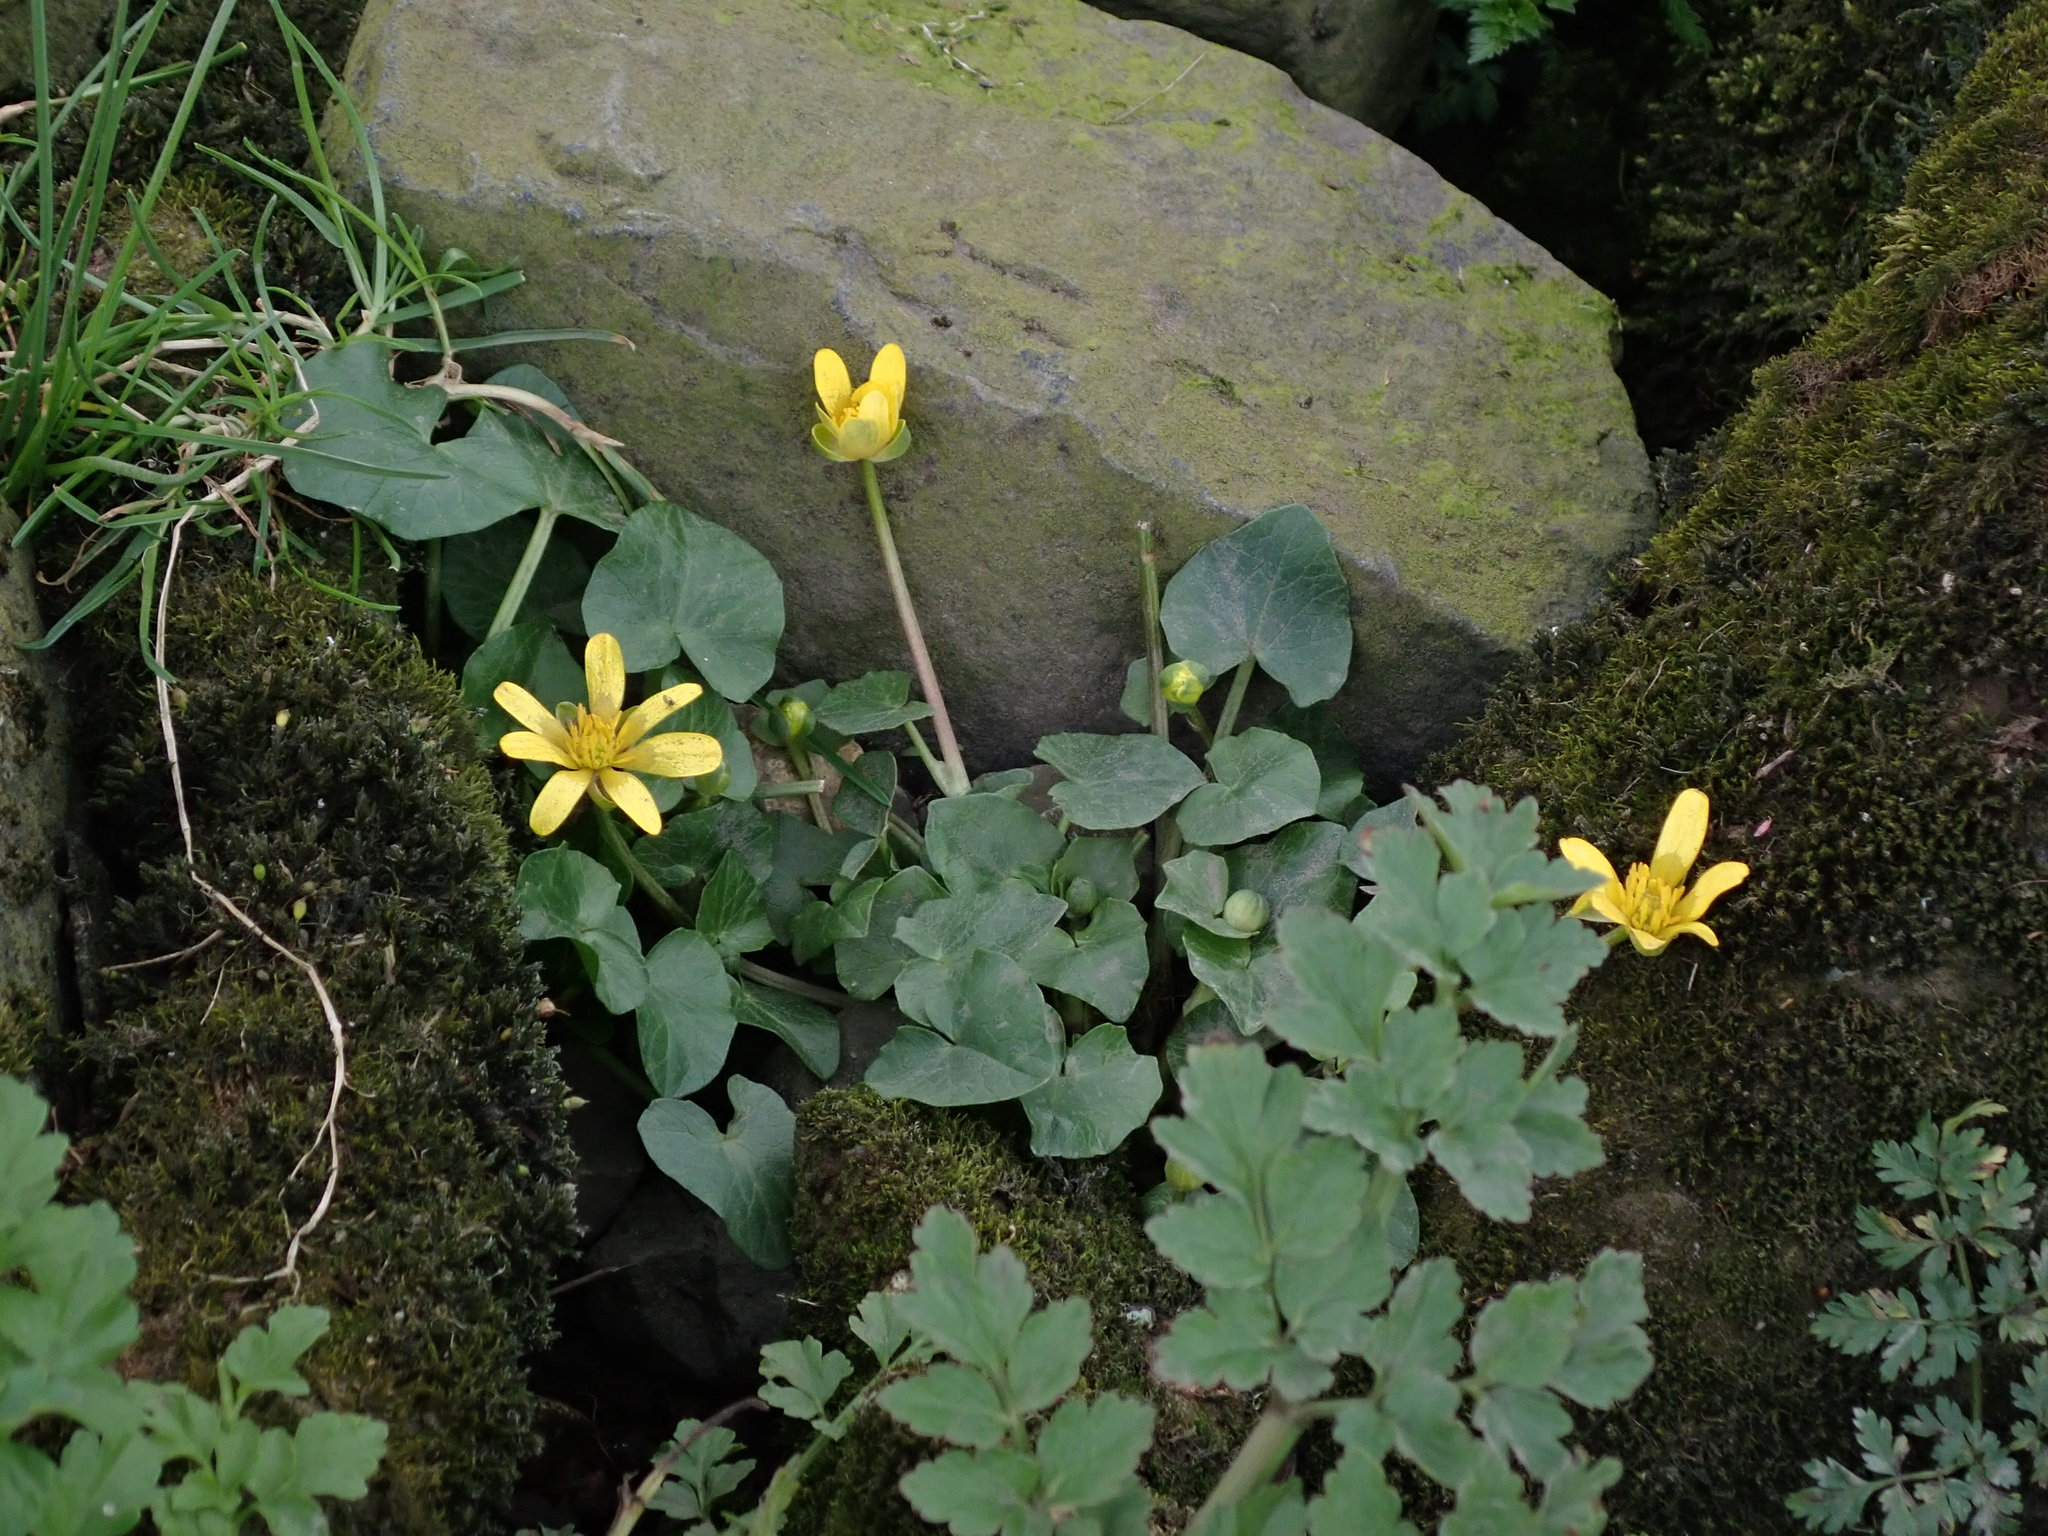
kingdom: Plantae
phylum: Tracheophyta
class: Magnoliopsida
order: Ranunculales
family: Ranunculaceae
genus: Ficaria
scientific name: Ficaria verna
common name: Lesser celandine
